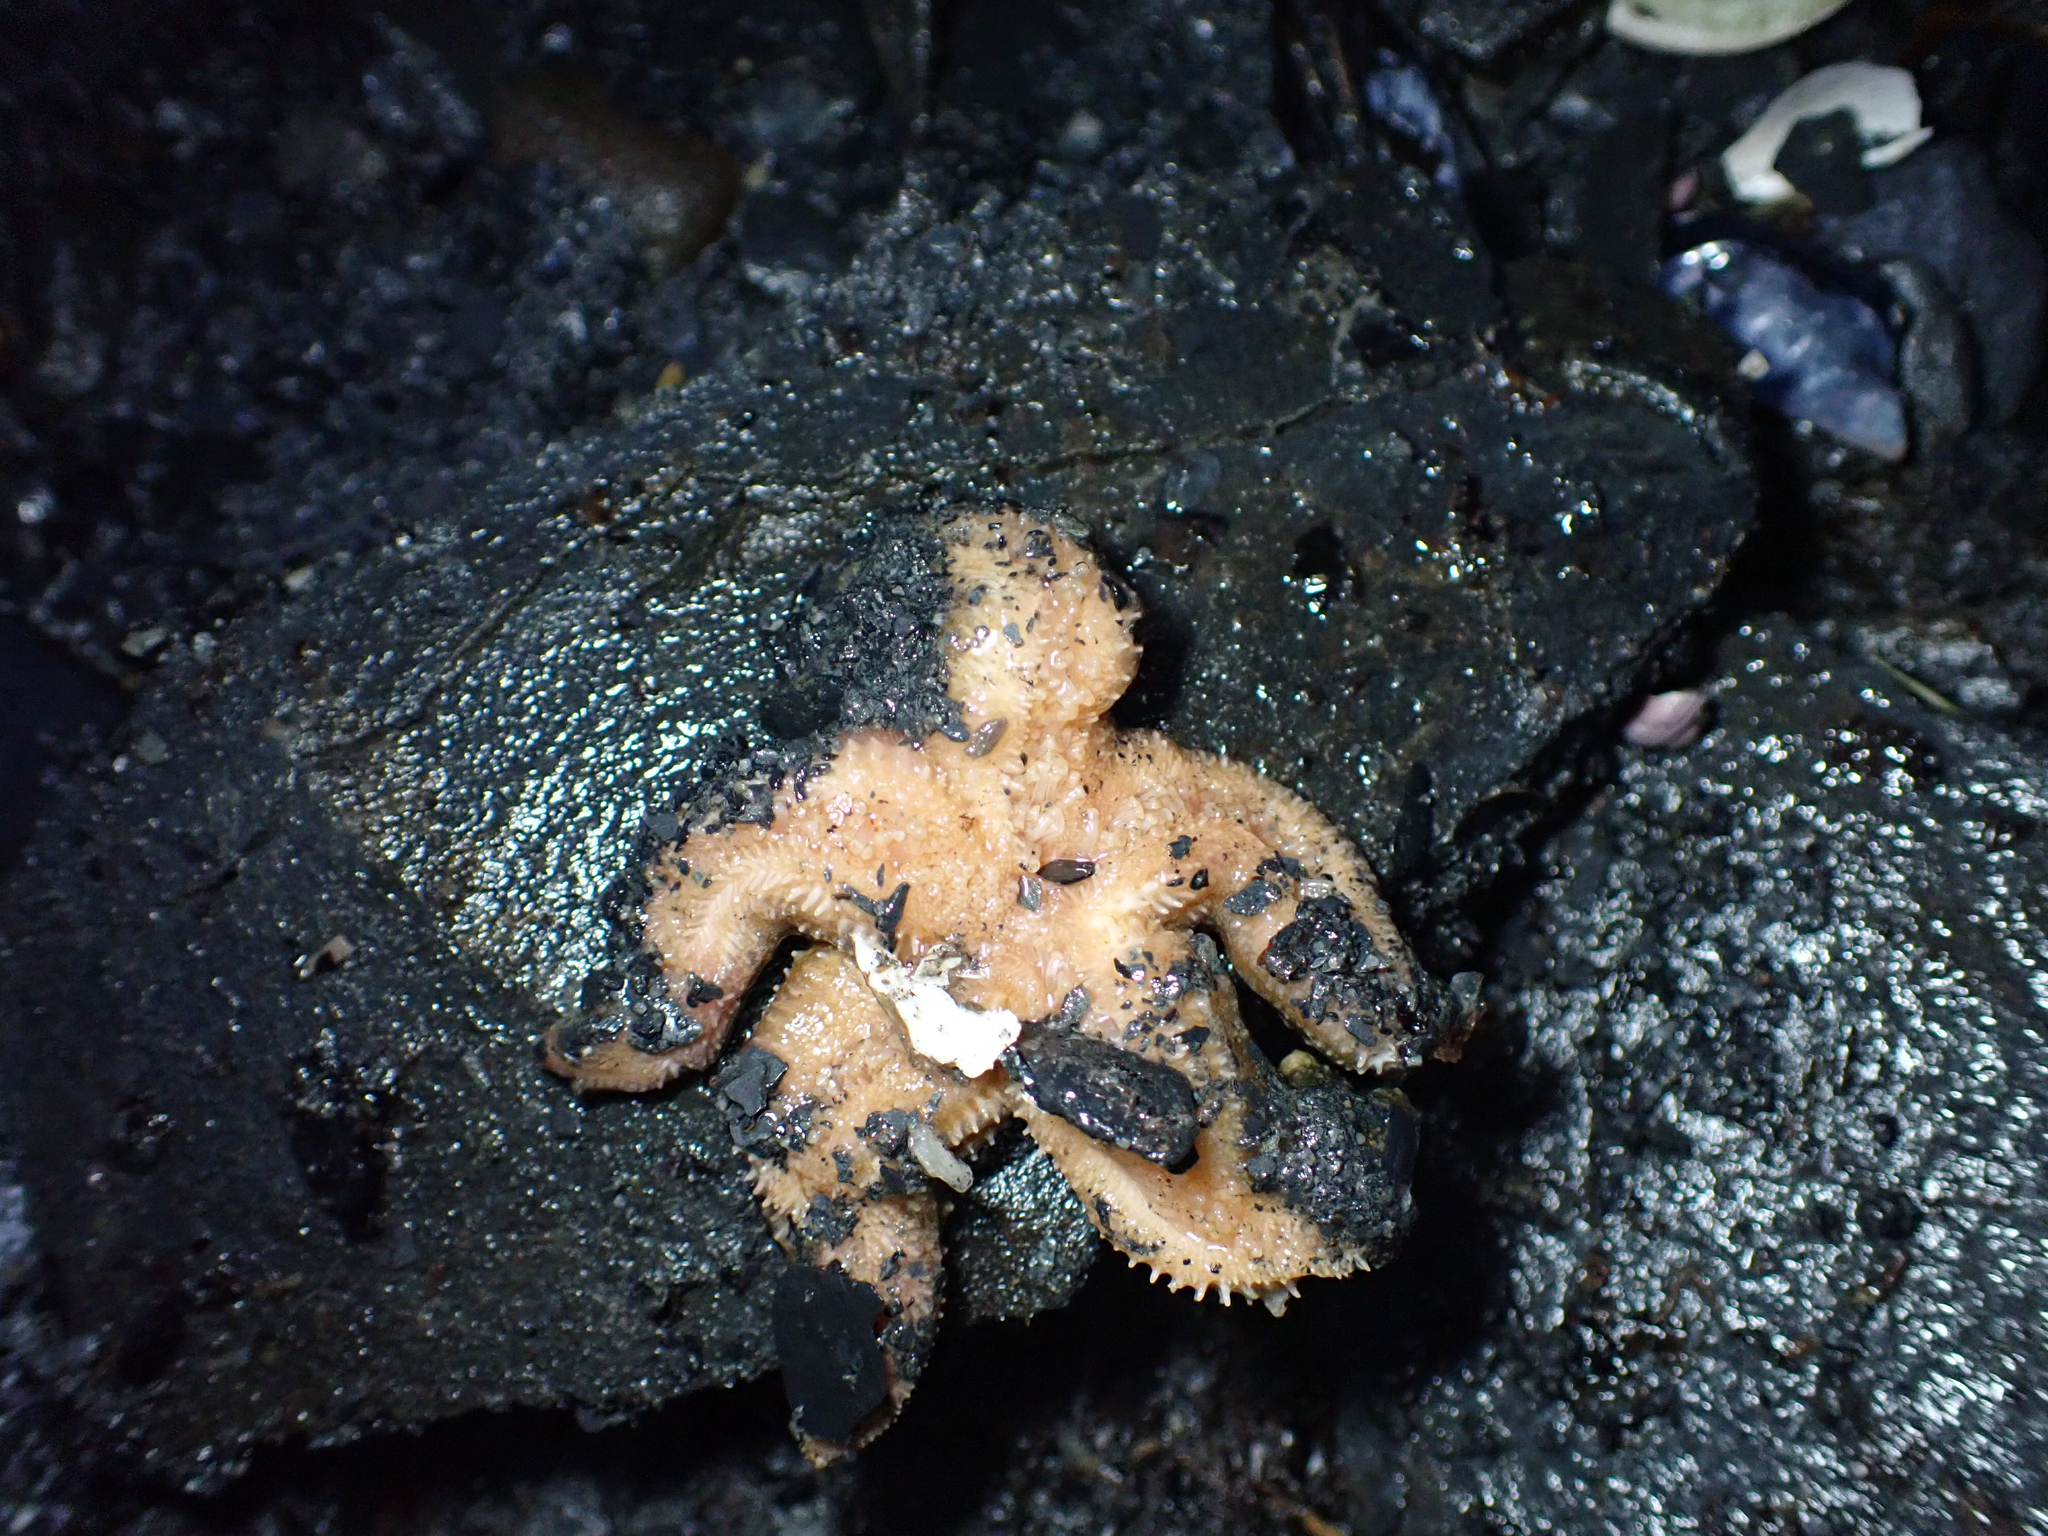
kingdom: Animalia
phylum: Echinodermata
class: Asteroidea
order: Forcipulatida
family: Asteriidae
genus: Evasterias
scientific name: Evasterias troschelii
